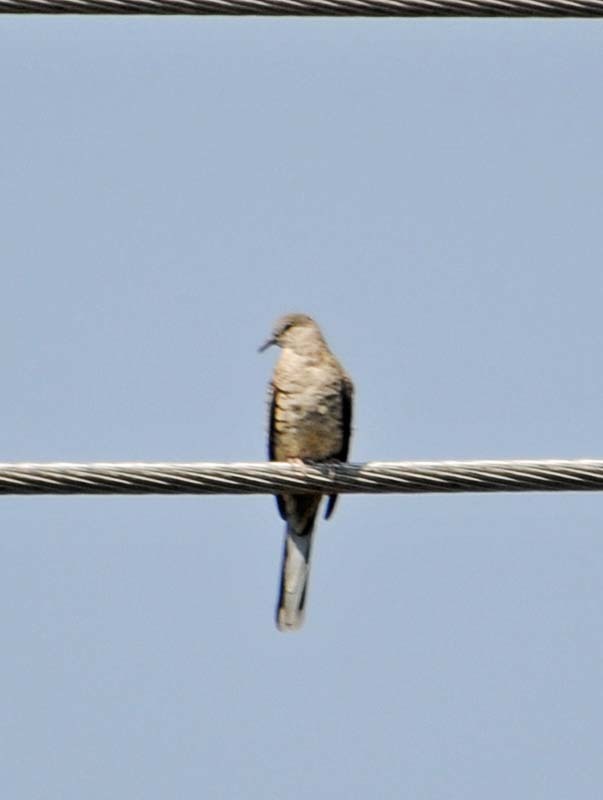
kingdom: Animalia
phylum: Chordata
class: Aves
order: Columbiformes
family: Columbidae
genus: Columbina
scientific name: Columbina inca
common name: Inca dove
